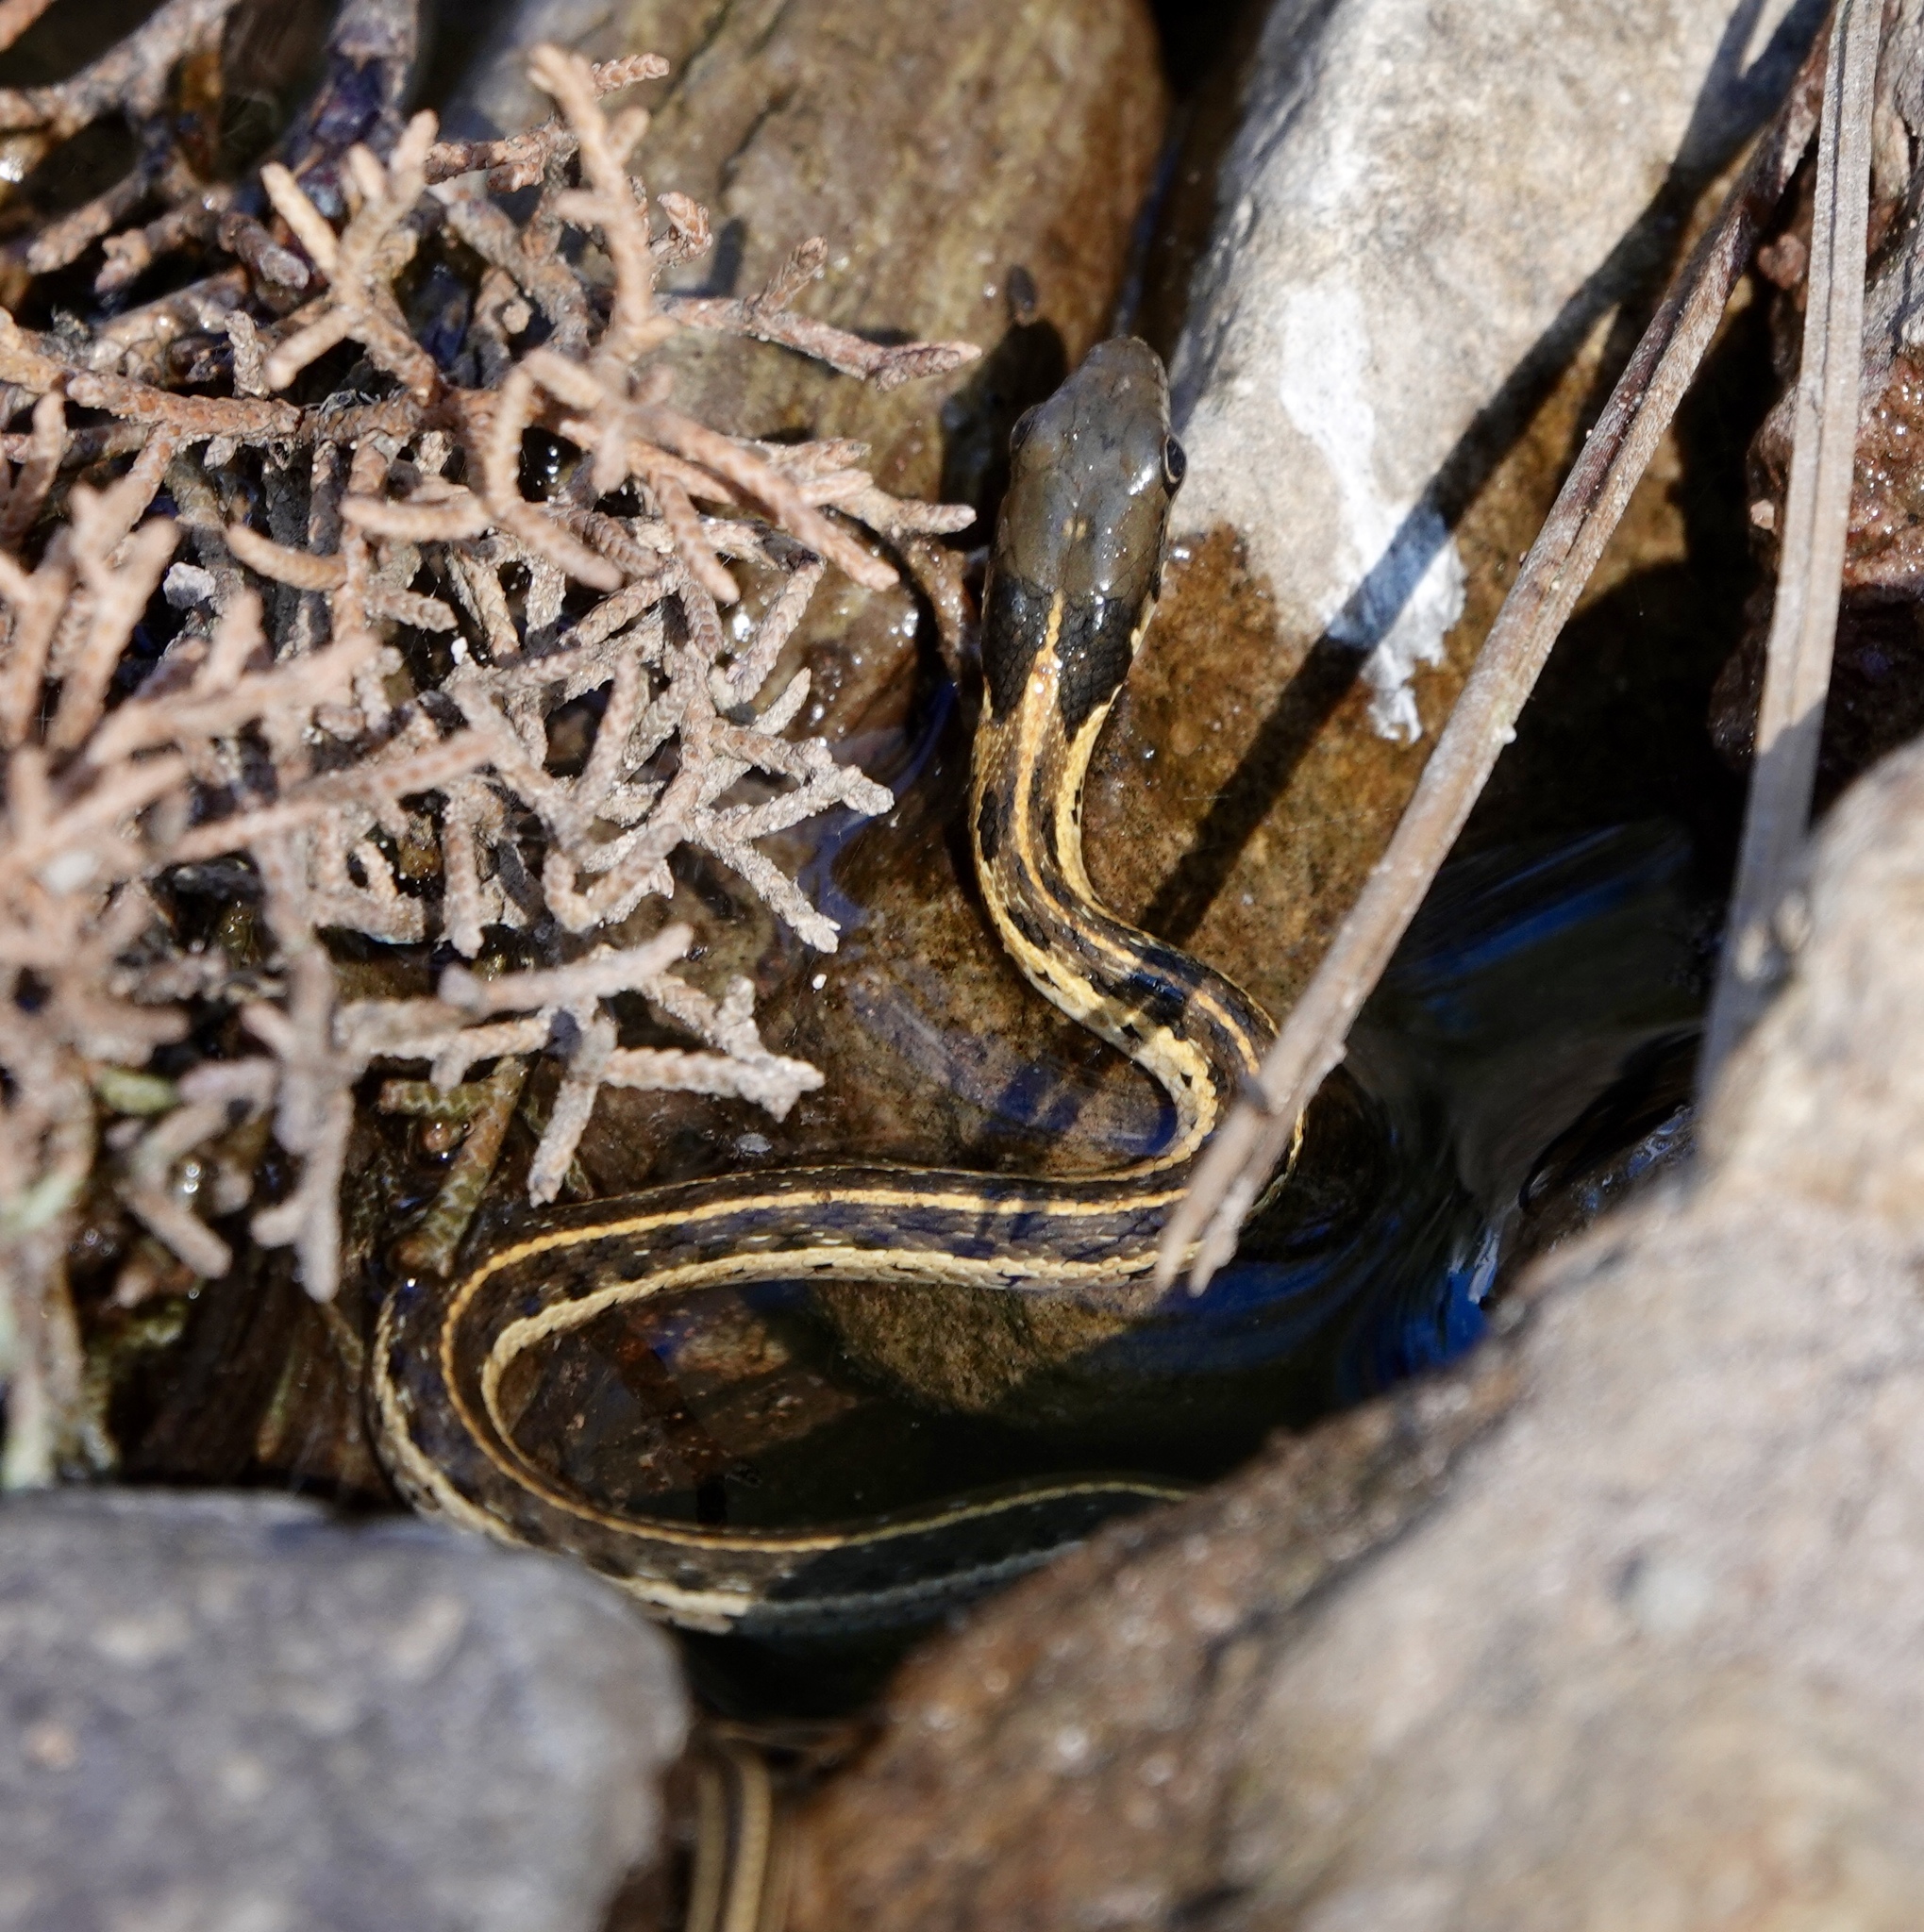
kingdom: Animalia
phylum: Chordata
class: Squamata
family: Colubridae
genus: Thamnophis
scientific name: Thamnophis cyrtopsis
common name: Black-necked gartersnake
